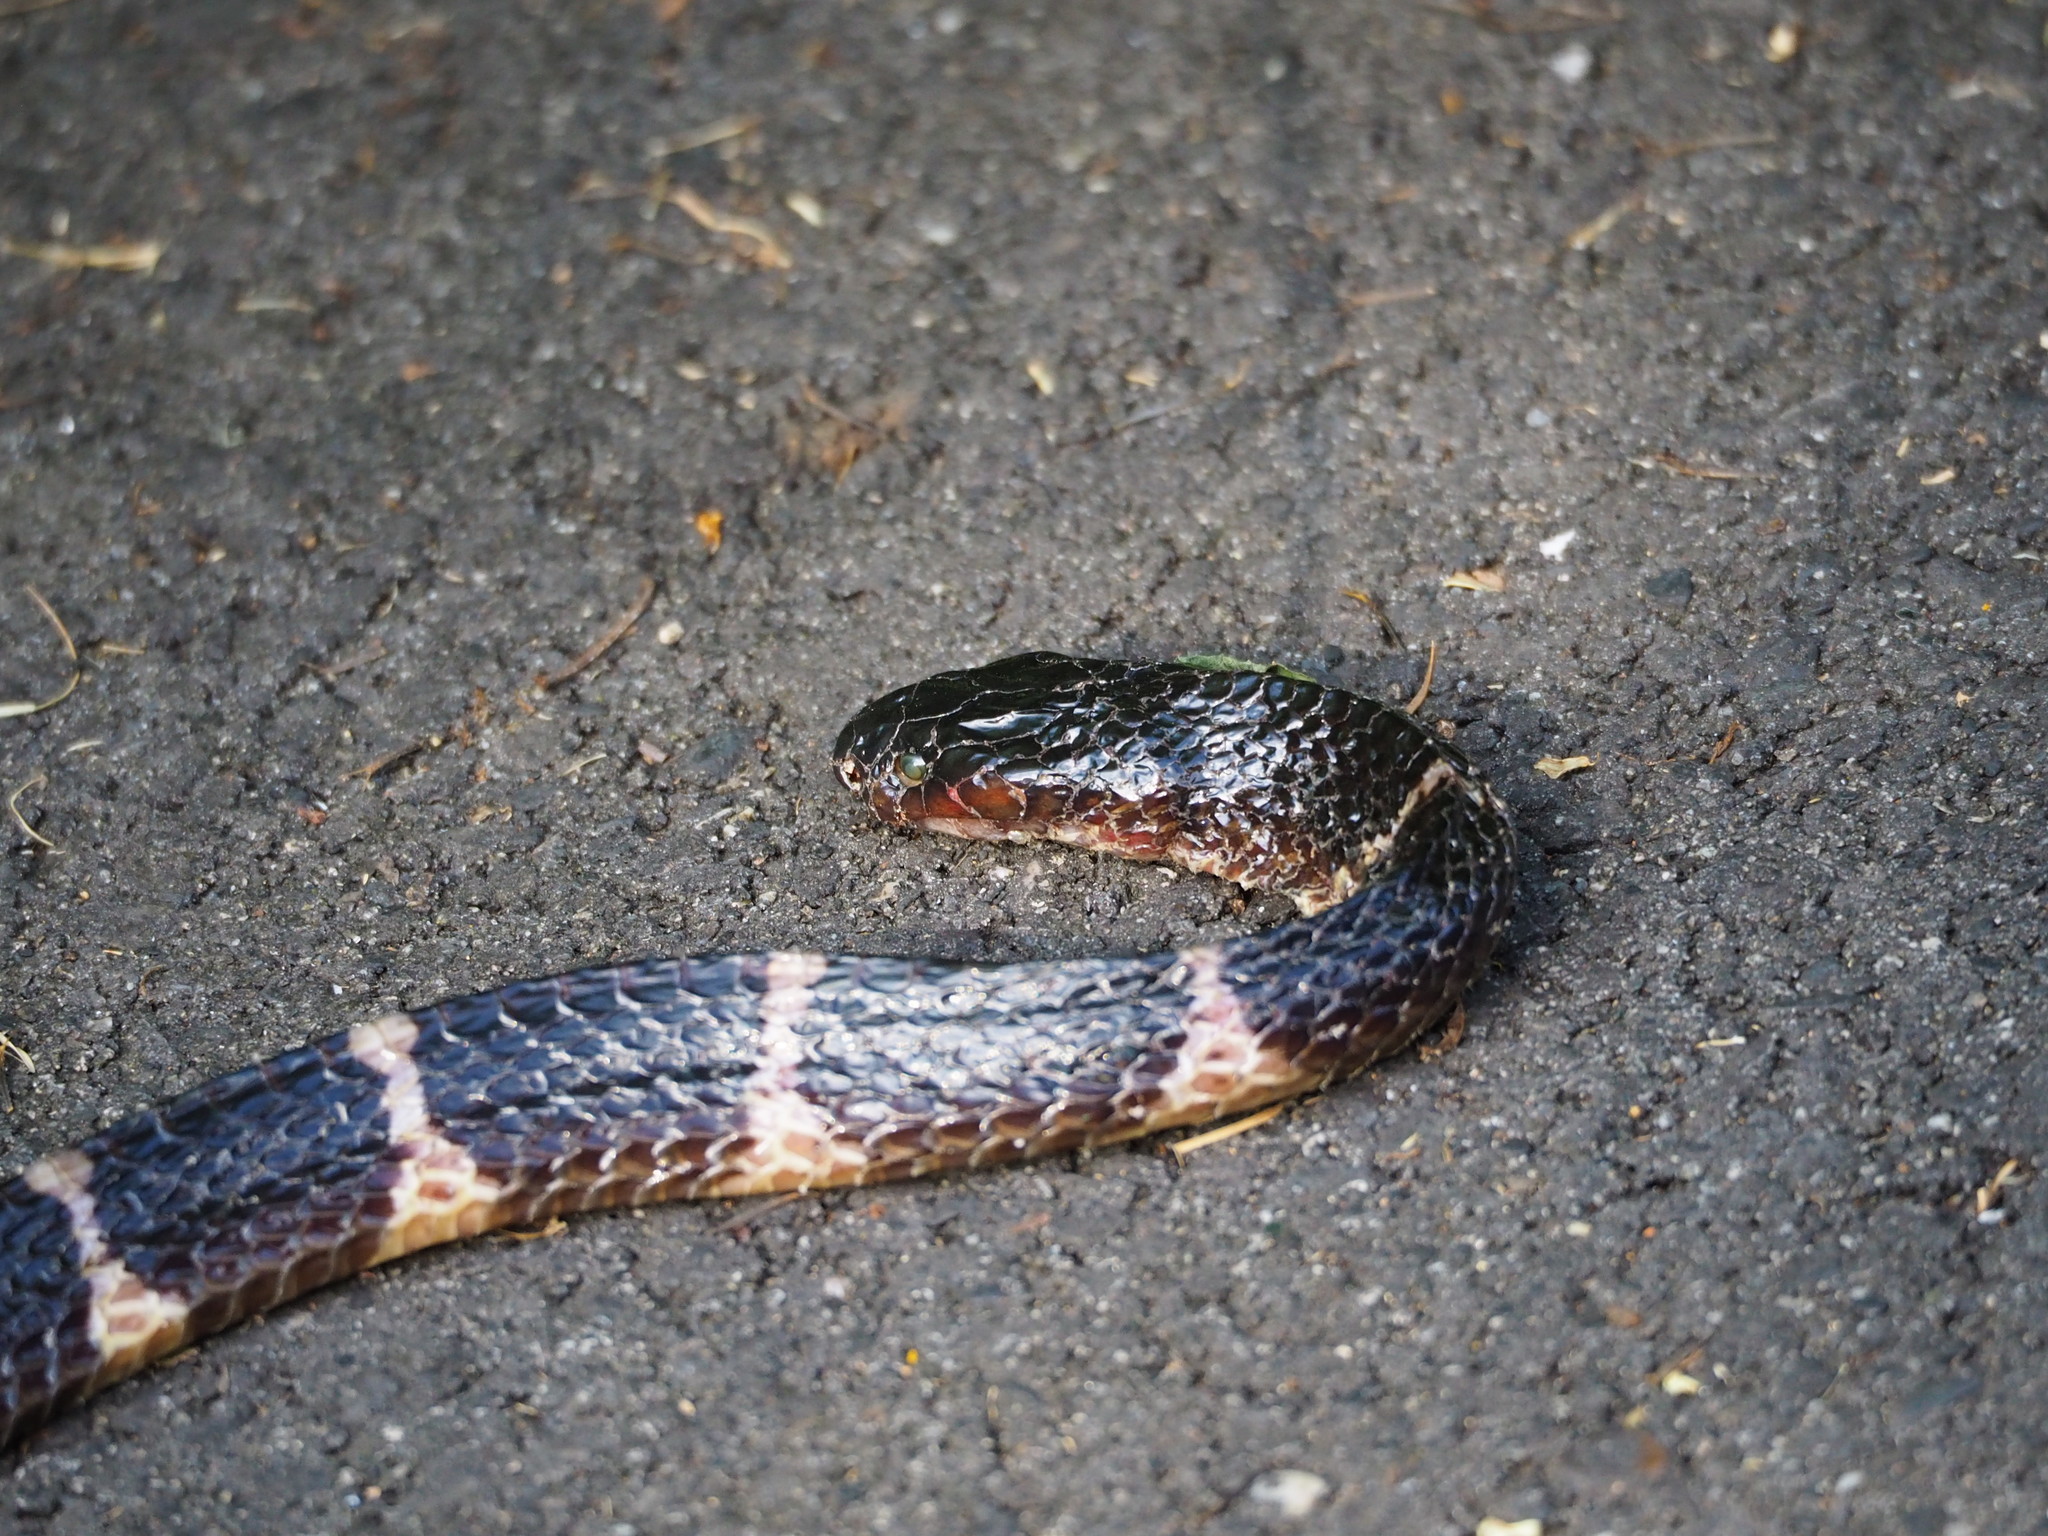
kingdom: Animalia
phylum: Chordata
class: Squamata
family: Elapidae
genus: Bungarus
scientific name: Bungarus multicinctus
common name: Many-banded krait
